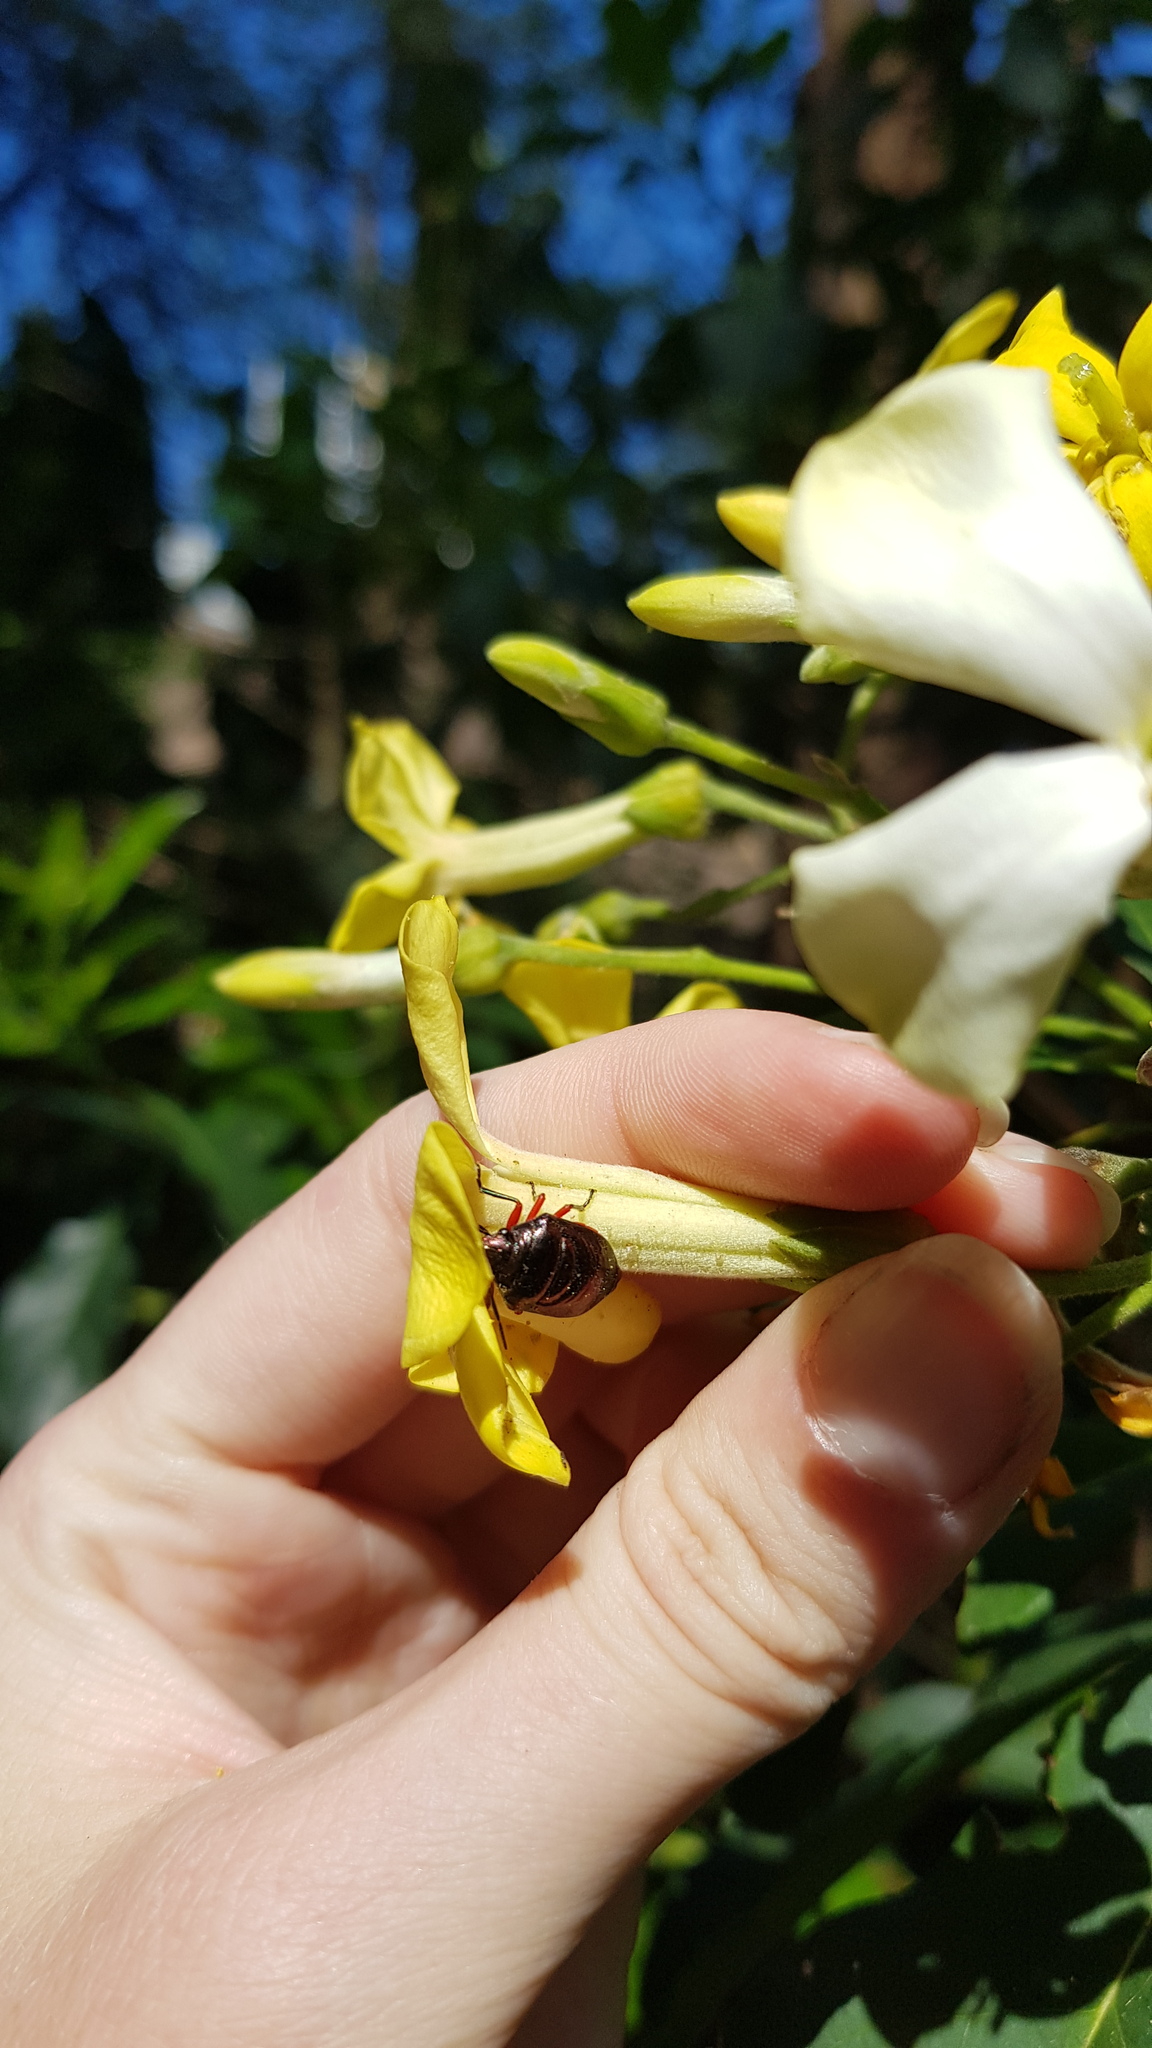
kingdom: Animalia
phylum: Arthropoda
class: Insecta
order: Hemiptera
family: Scutelleridae
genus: Lampromicra
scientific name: Lampromicra
